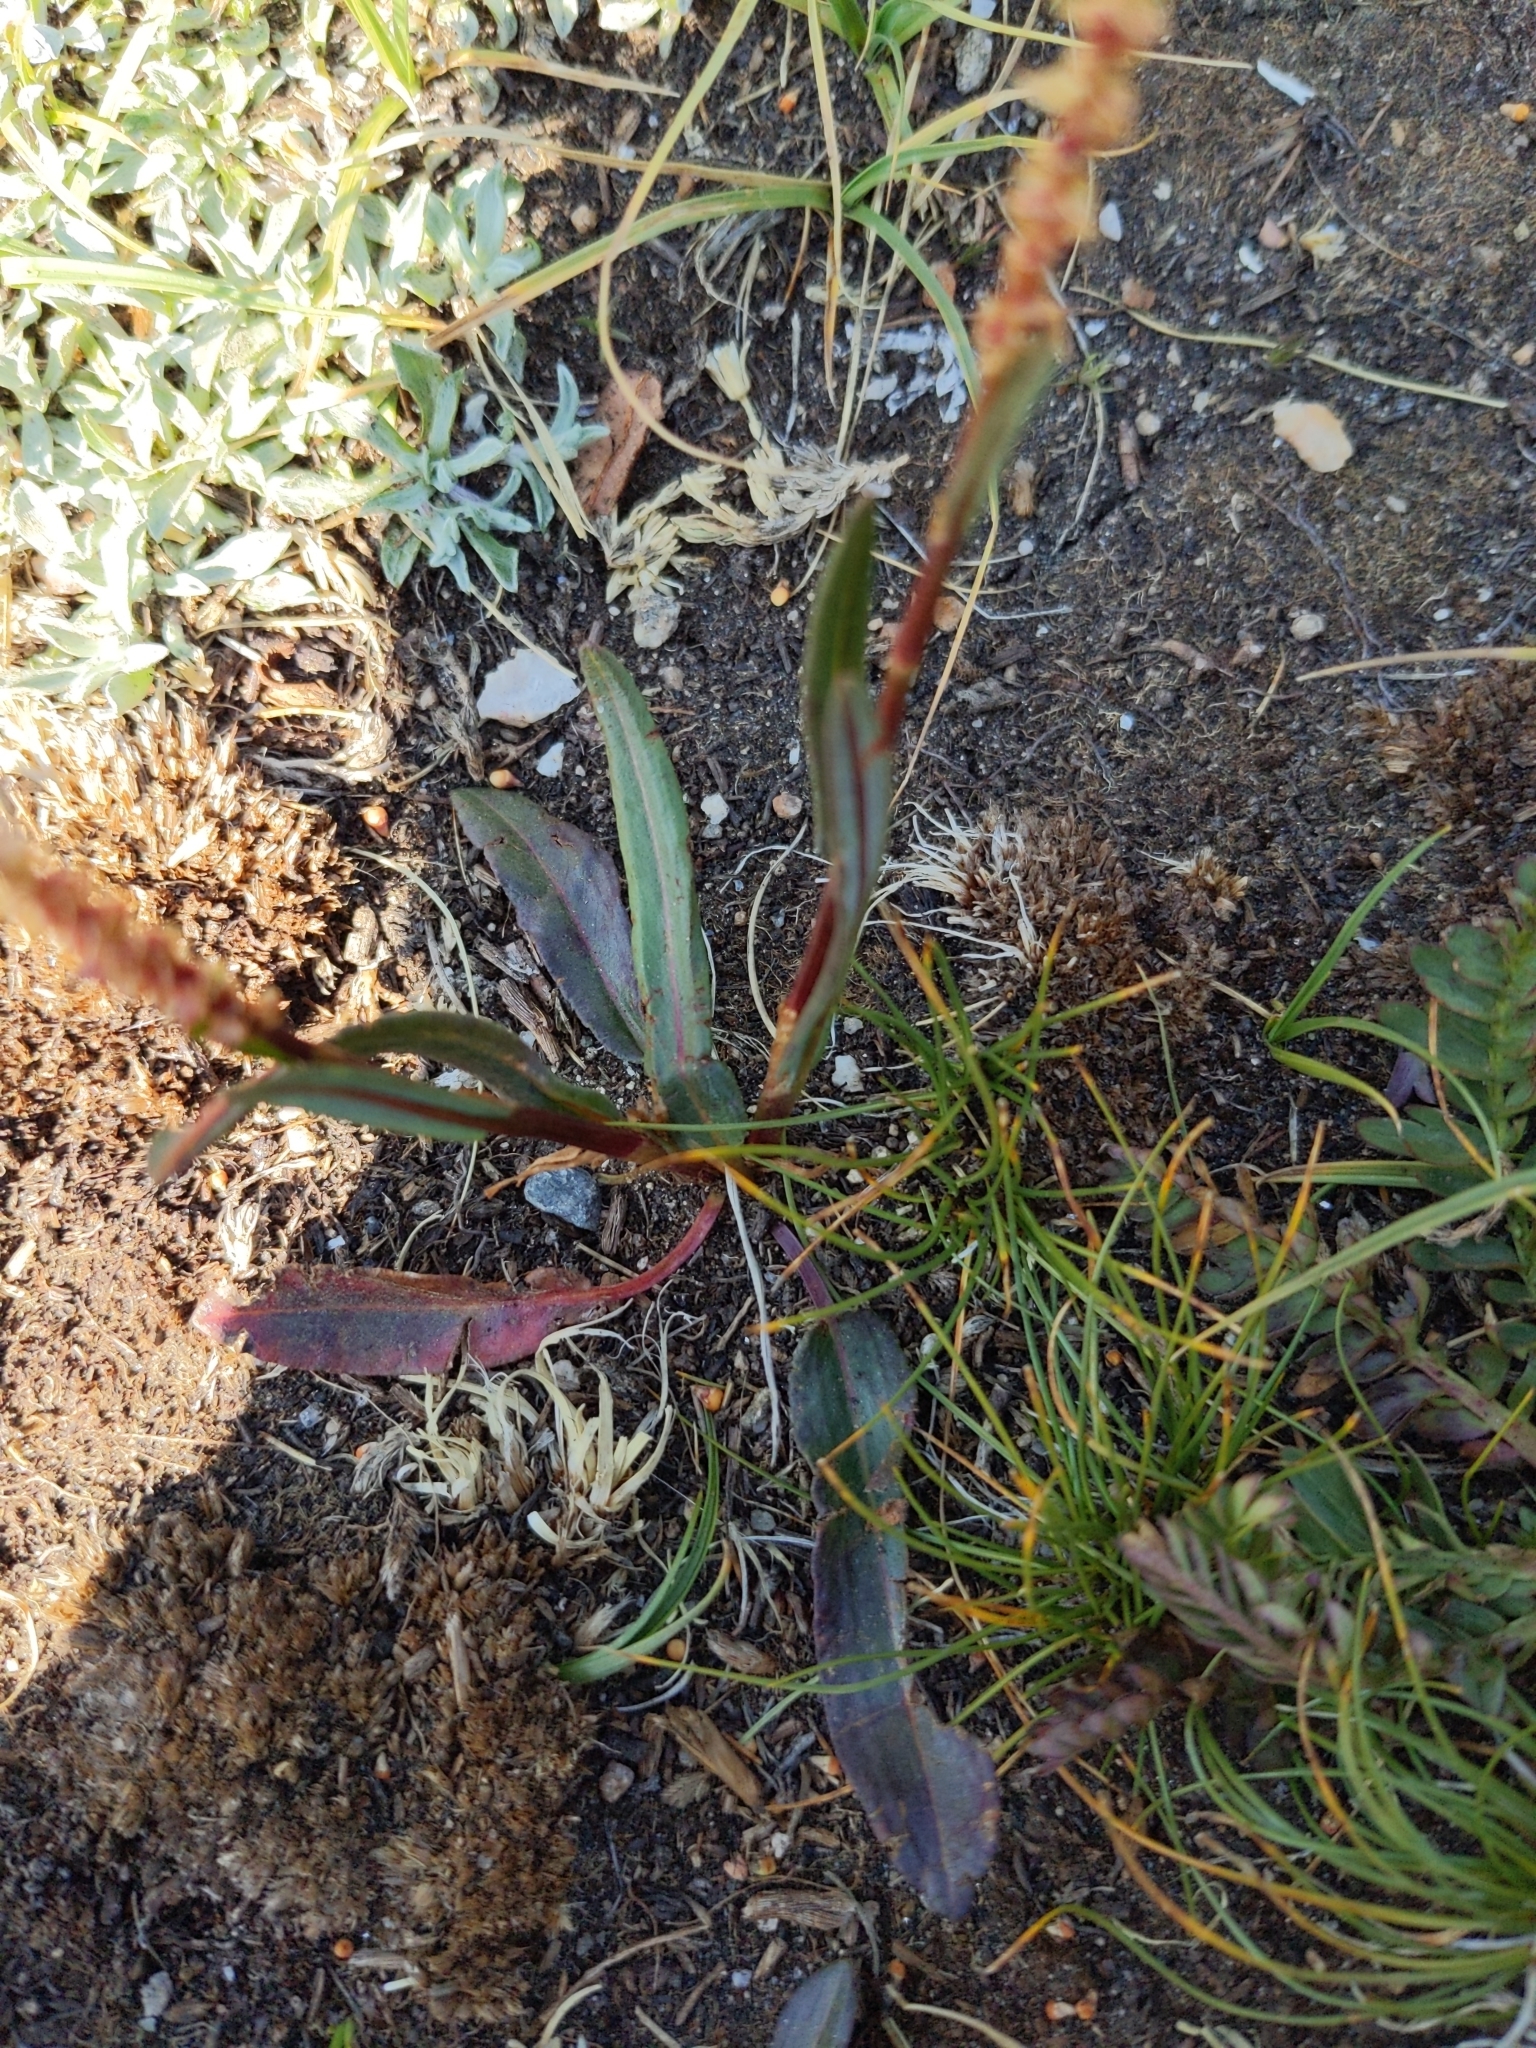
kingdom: Plantae
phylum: Tracheophyta
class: Magnoliopsida
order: Caryophyllales
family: Polygonaceae
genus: Bistorta
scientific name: Bistorta vivipara
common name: Alpine bistort
